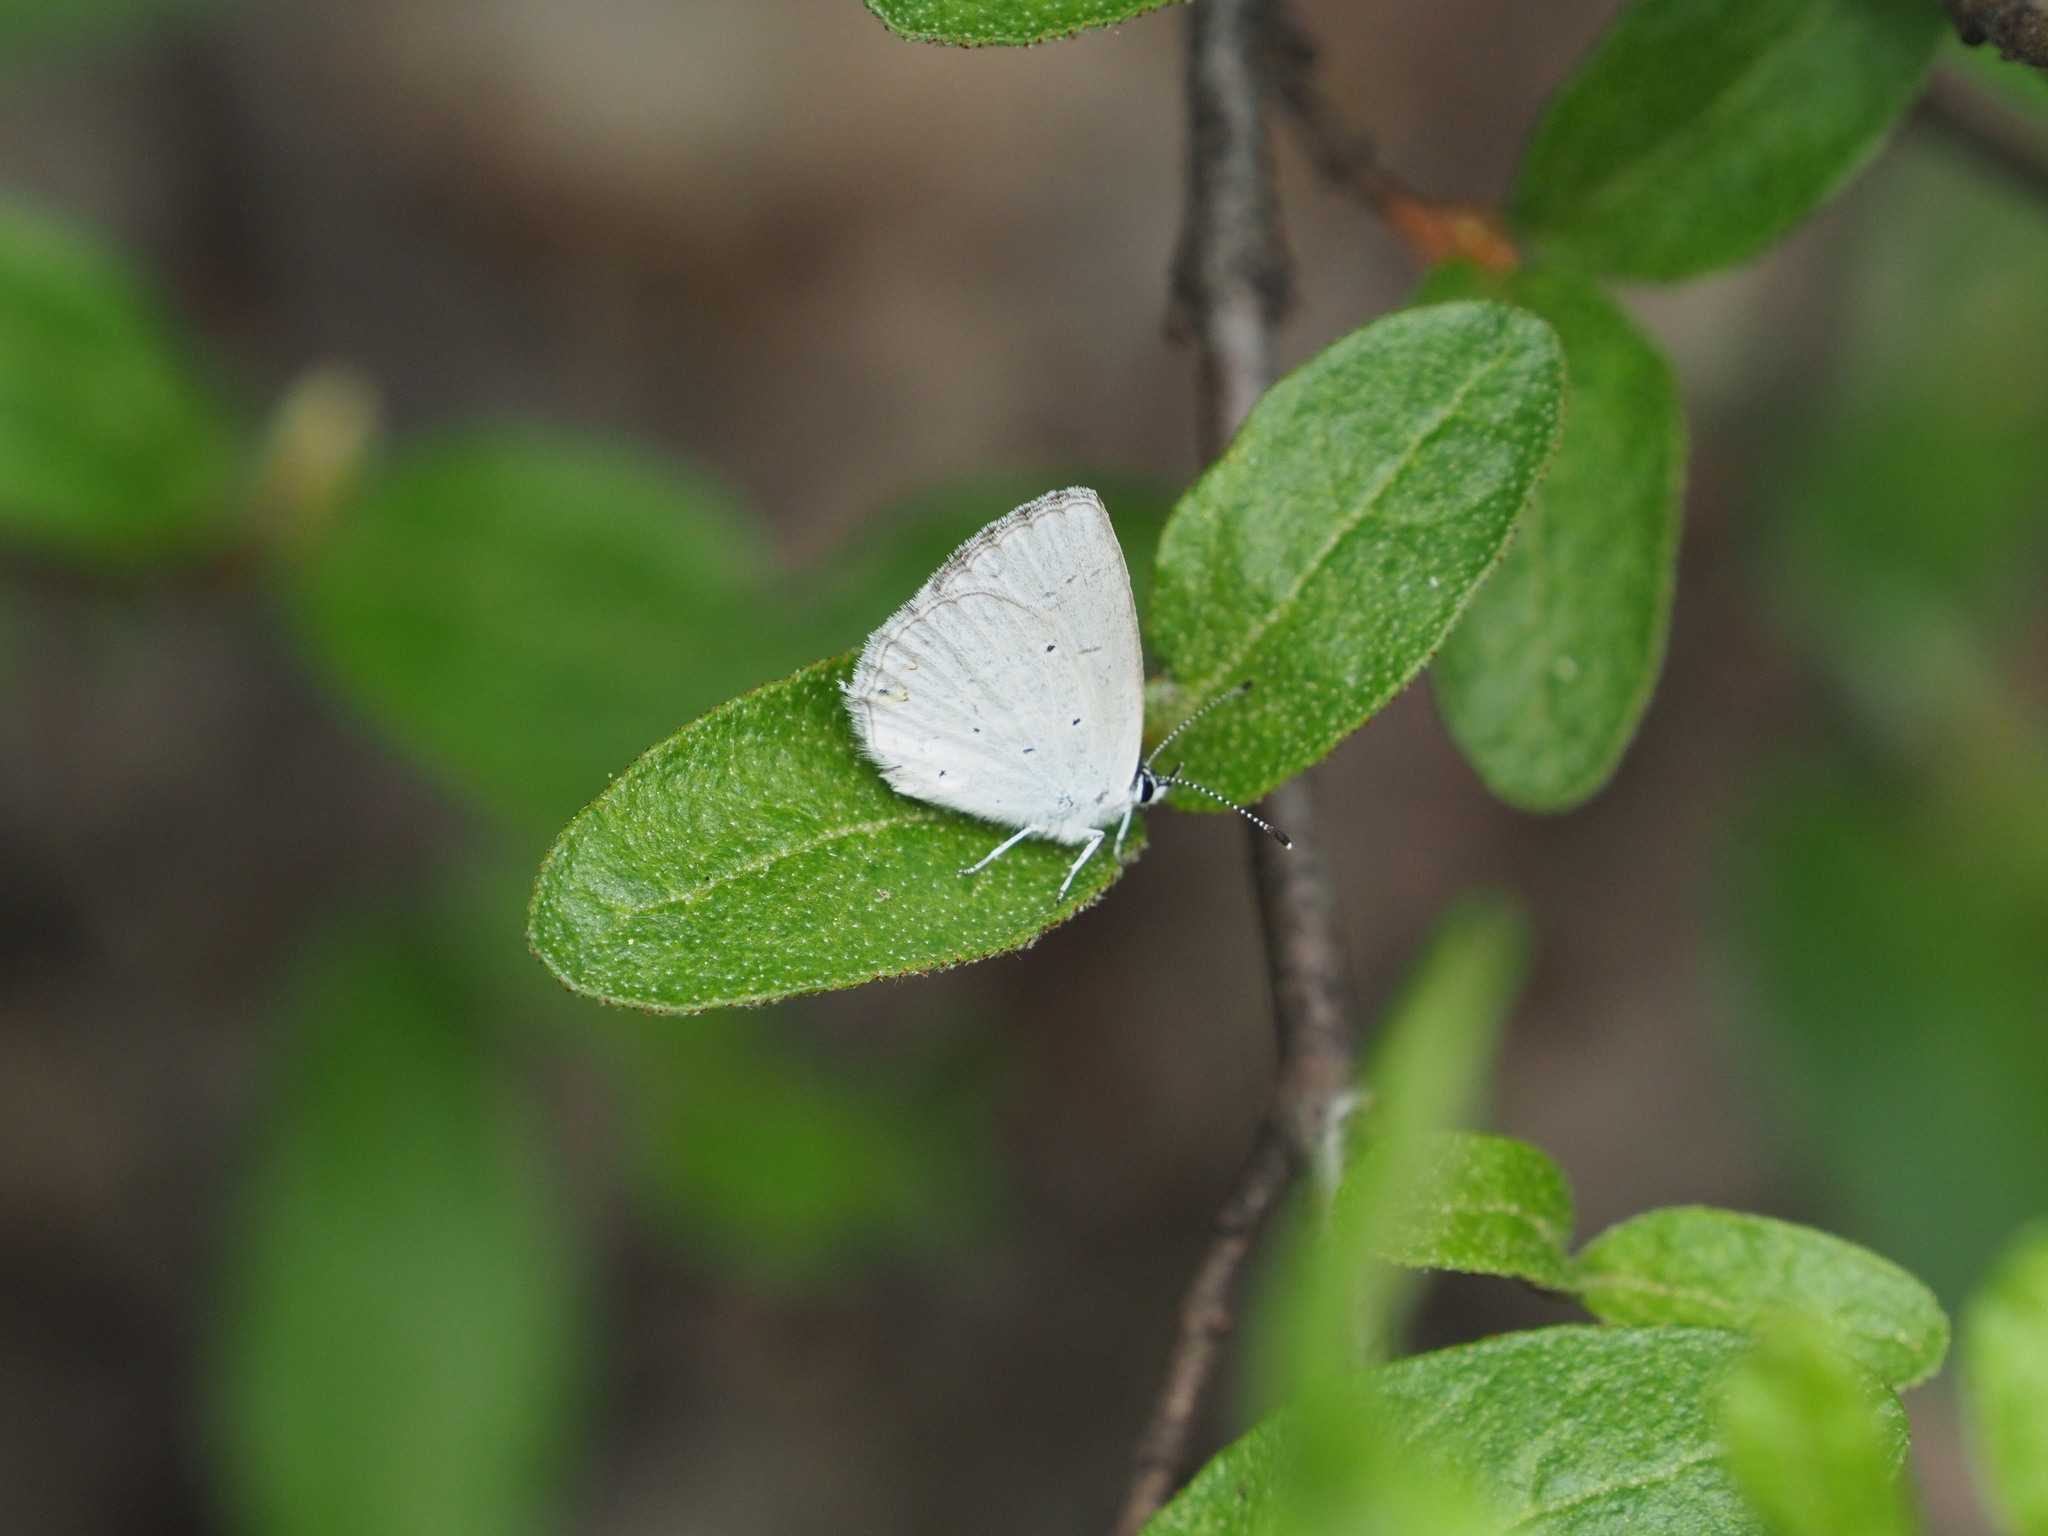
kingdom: Animalia
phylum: Arthropoda
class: Insecta
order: Lepidoptera
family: Lycaenidae
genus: Elkalyce
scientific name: Elkalyce amyntula
